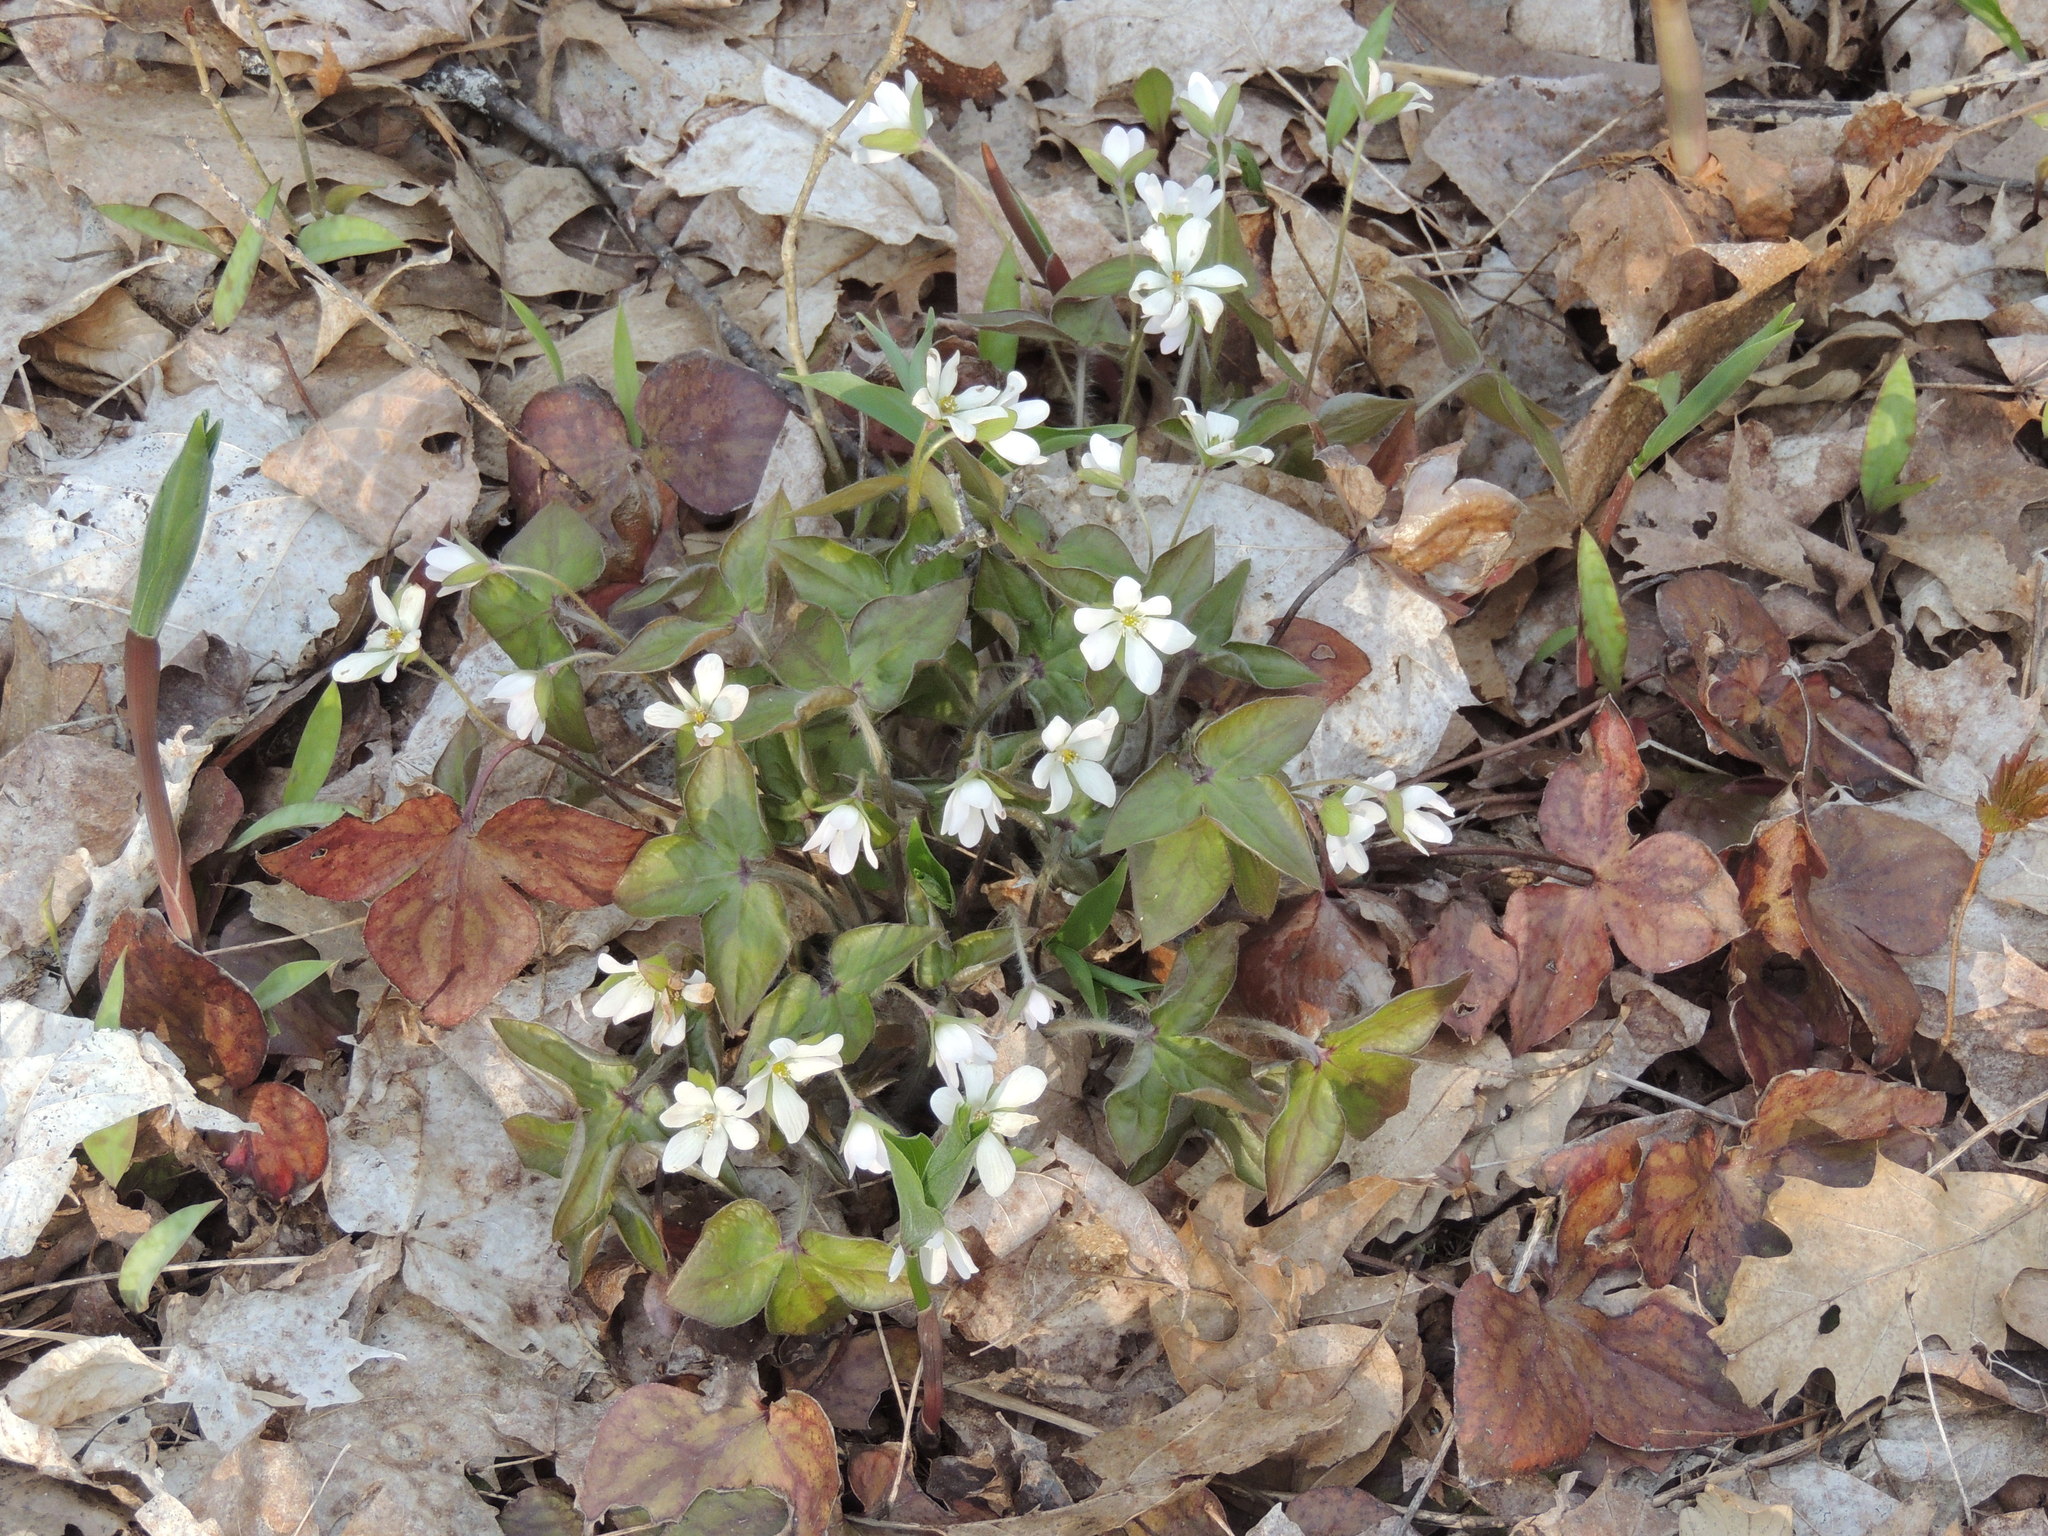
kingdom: Plantae
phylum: Tracheophyta
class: Magnoliopsida
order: Ranunculales
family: Ranunculaceae
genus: Hepatica
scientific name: Hepatica acutiloba
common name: Sharp-lobed hepatica
